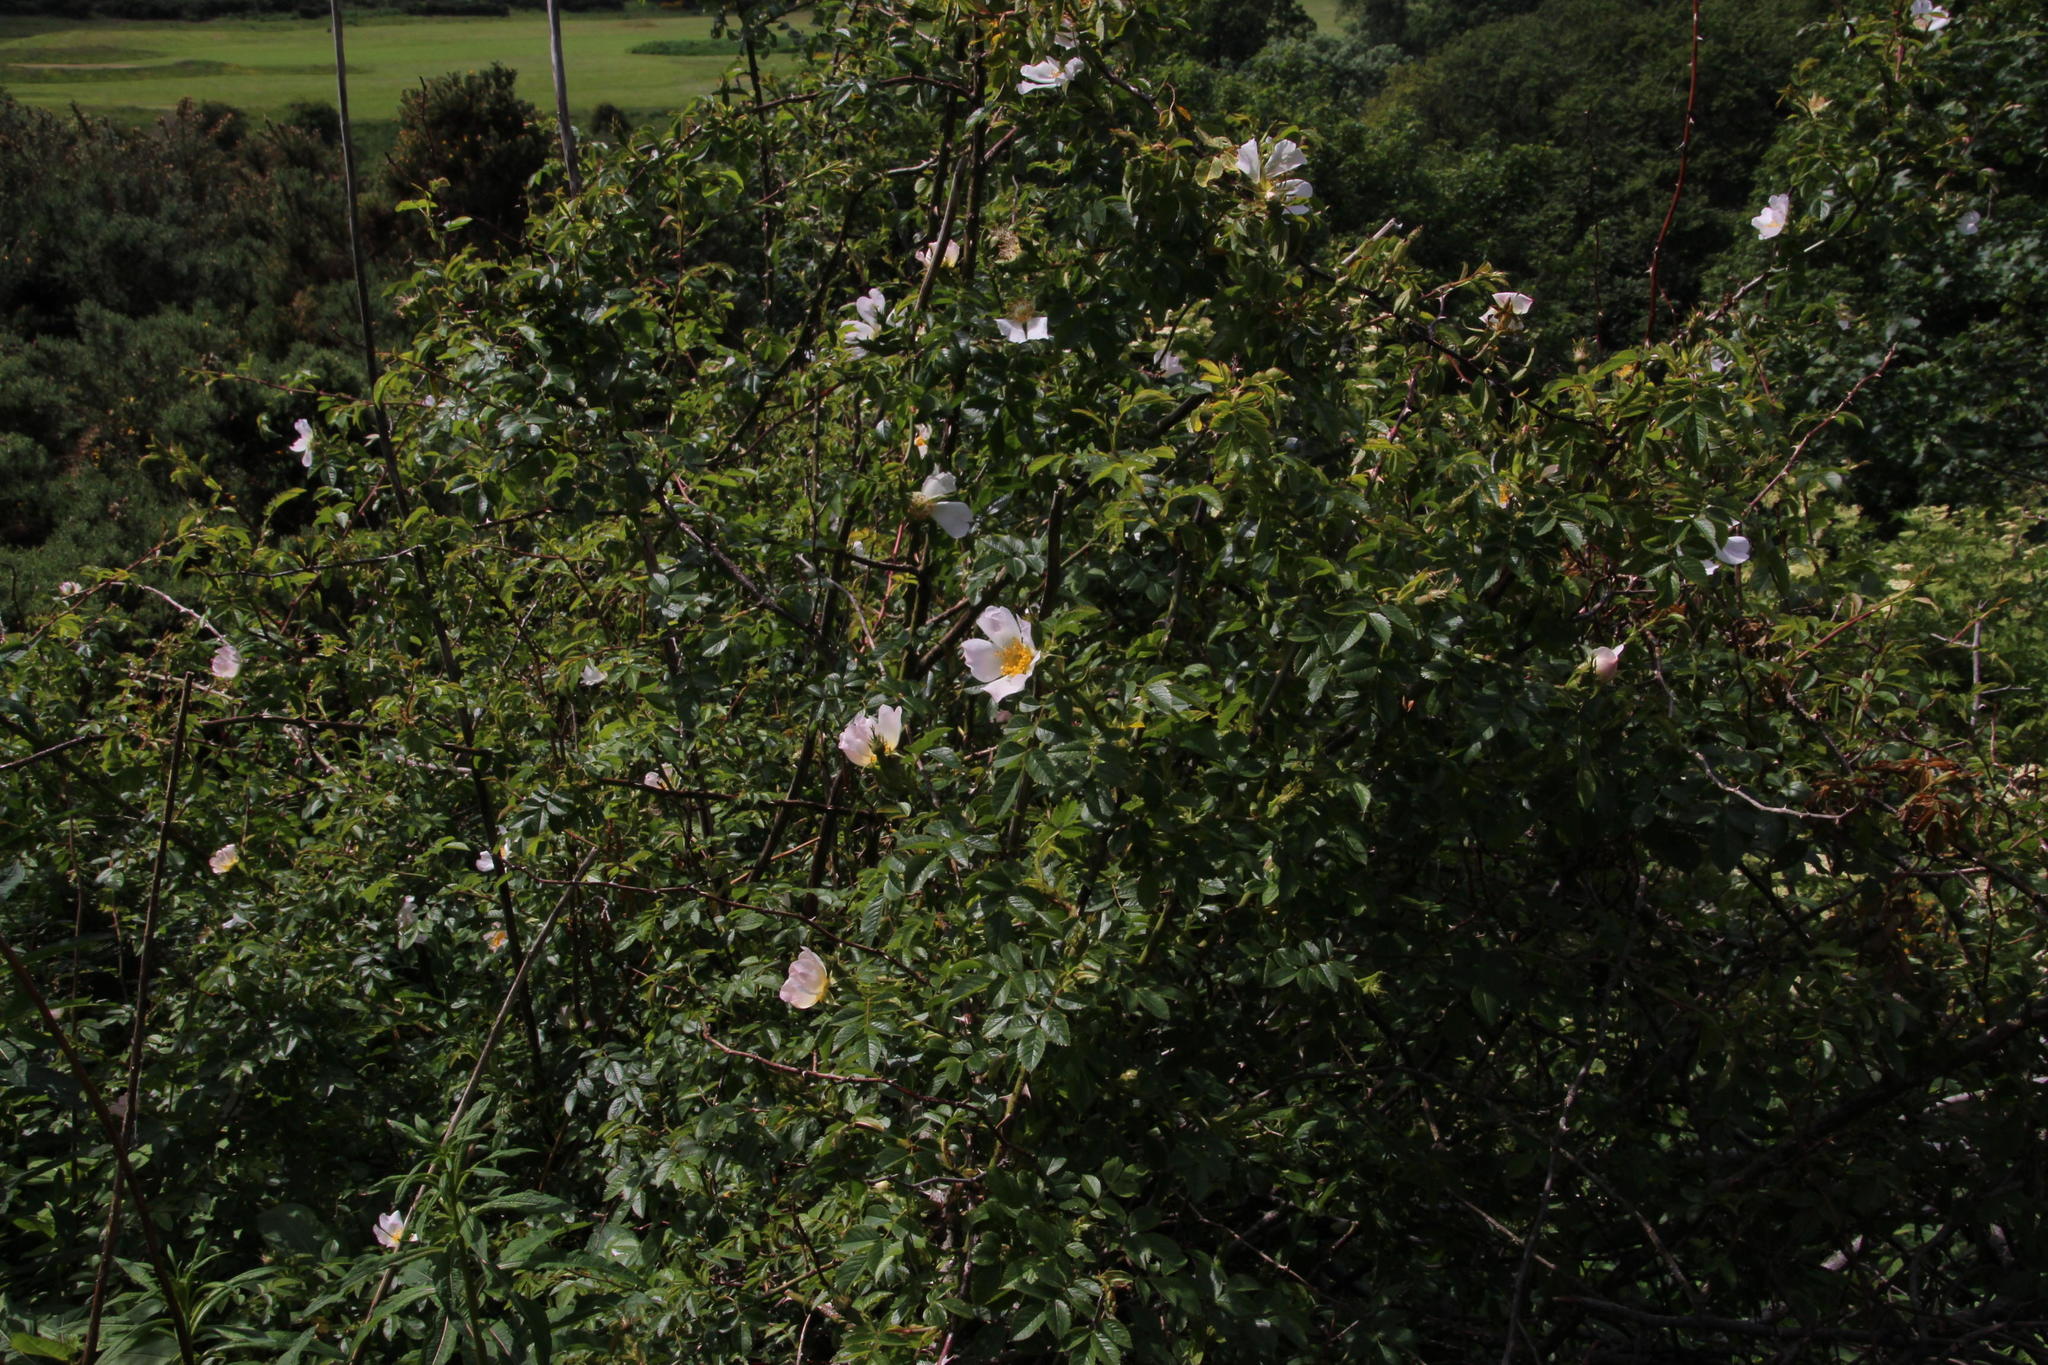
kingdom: Plantae
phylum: Tracheophyta
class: Magnoliopsida
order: Rosales
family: Rosaceae
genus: Rosa
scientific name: Rosa canina
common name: Dog rose
